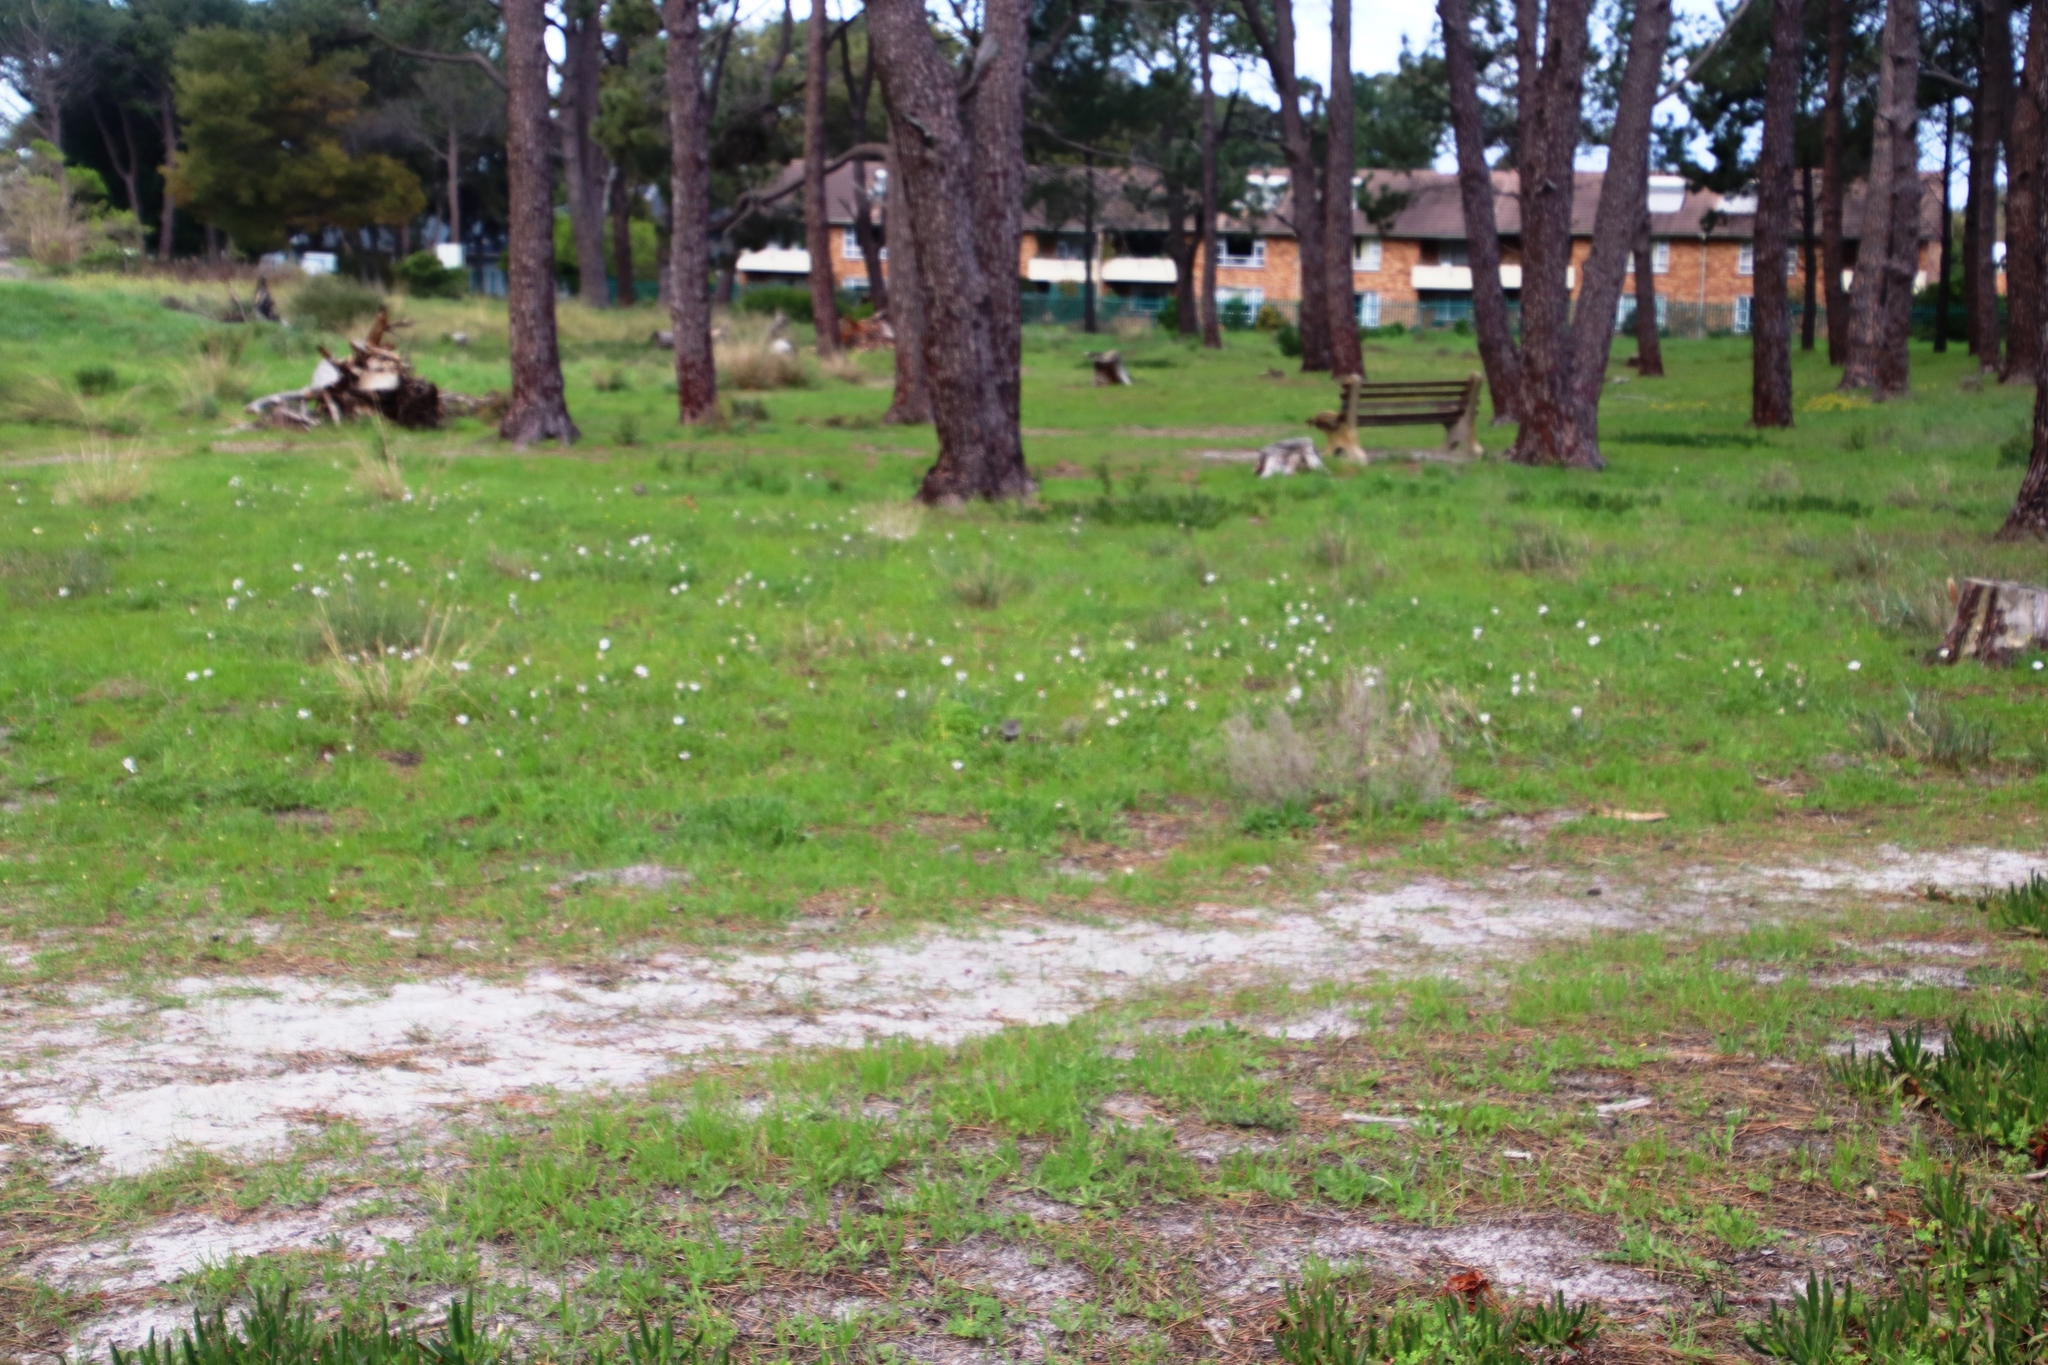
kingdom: Plantae
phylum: Tracheophyta
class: Magnoliopsida
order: Asterales
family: Asteraceae
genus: Dimorphotheca
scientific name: Dimorphotheca pluvialis
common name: Weather prophet
